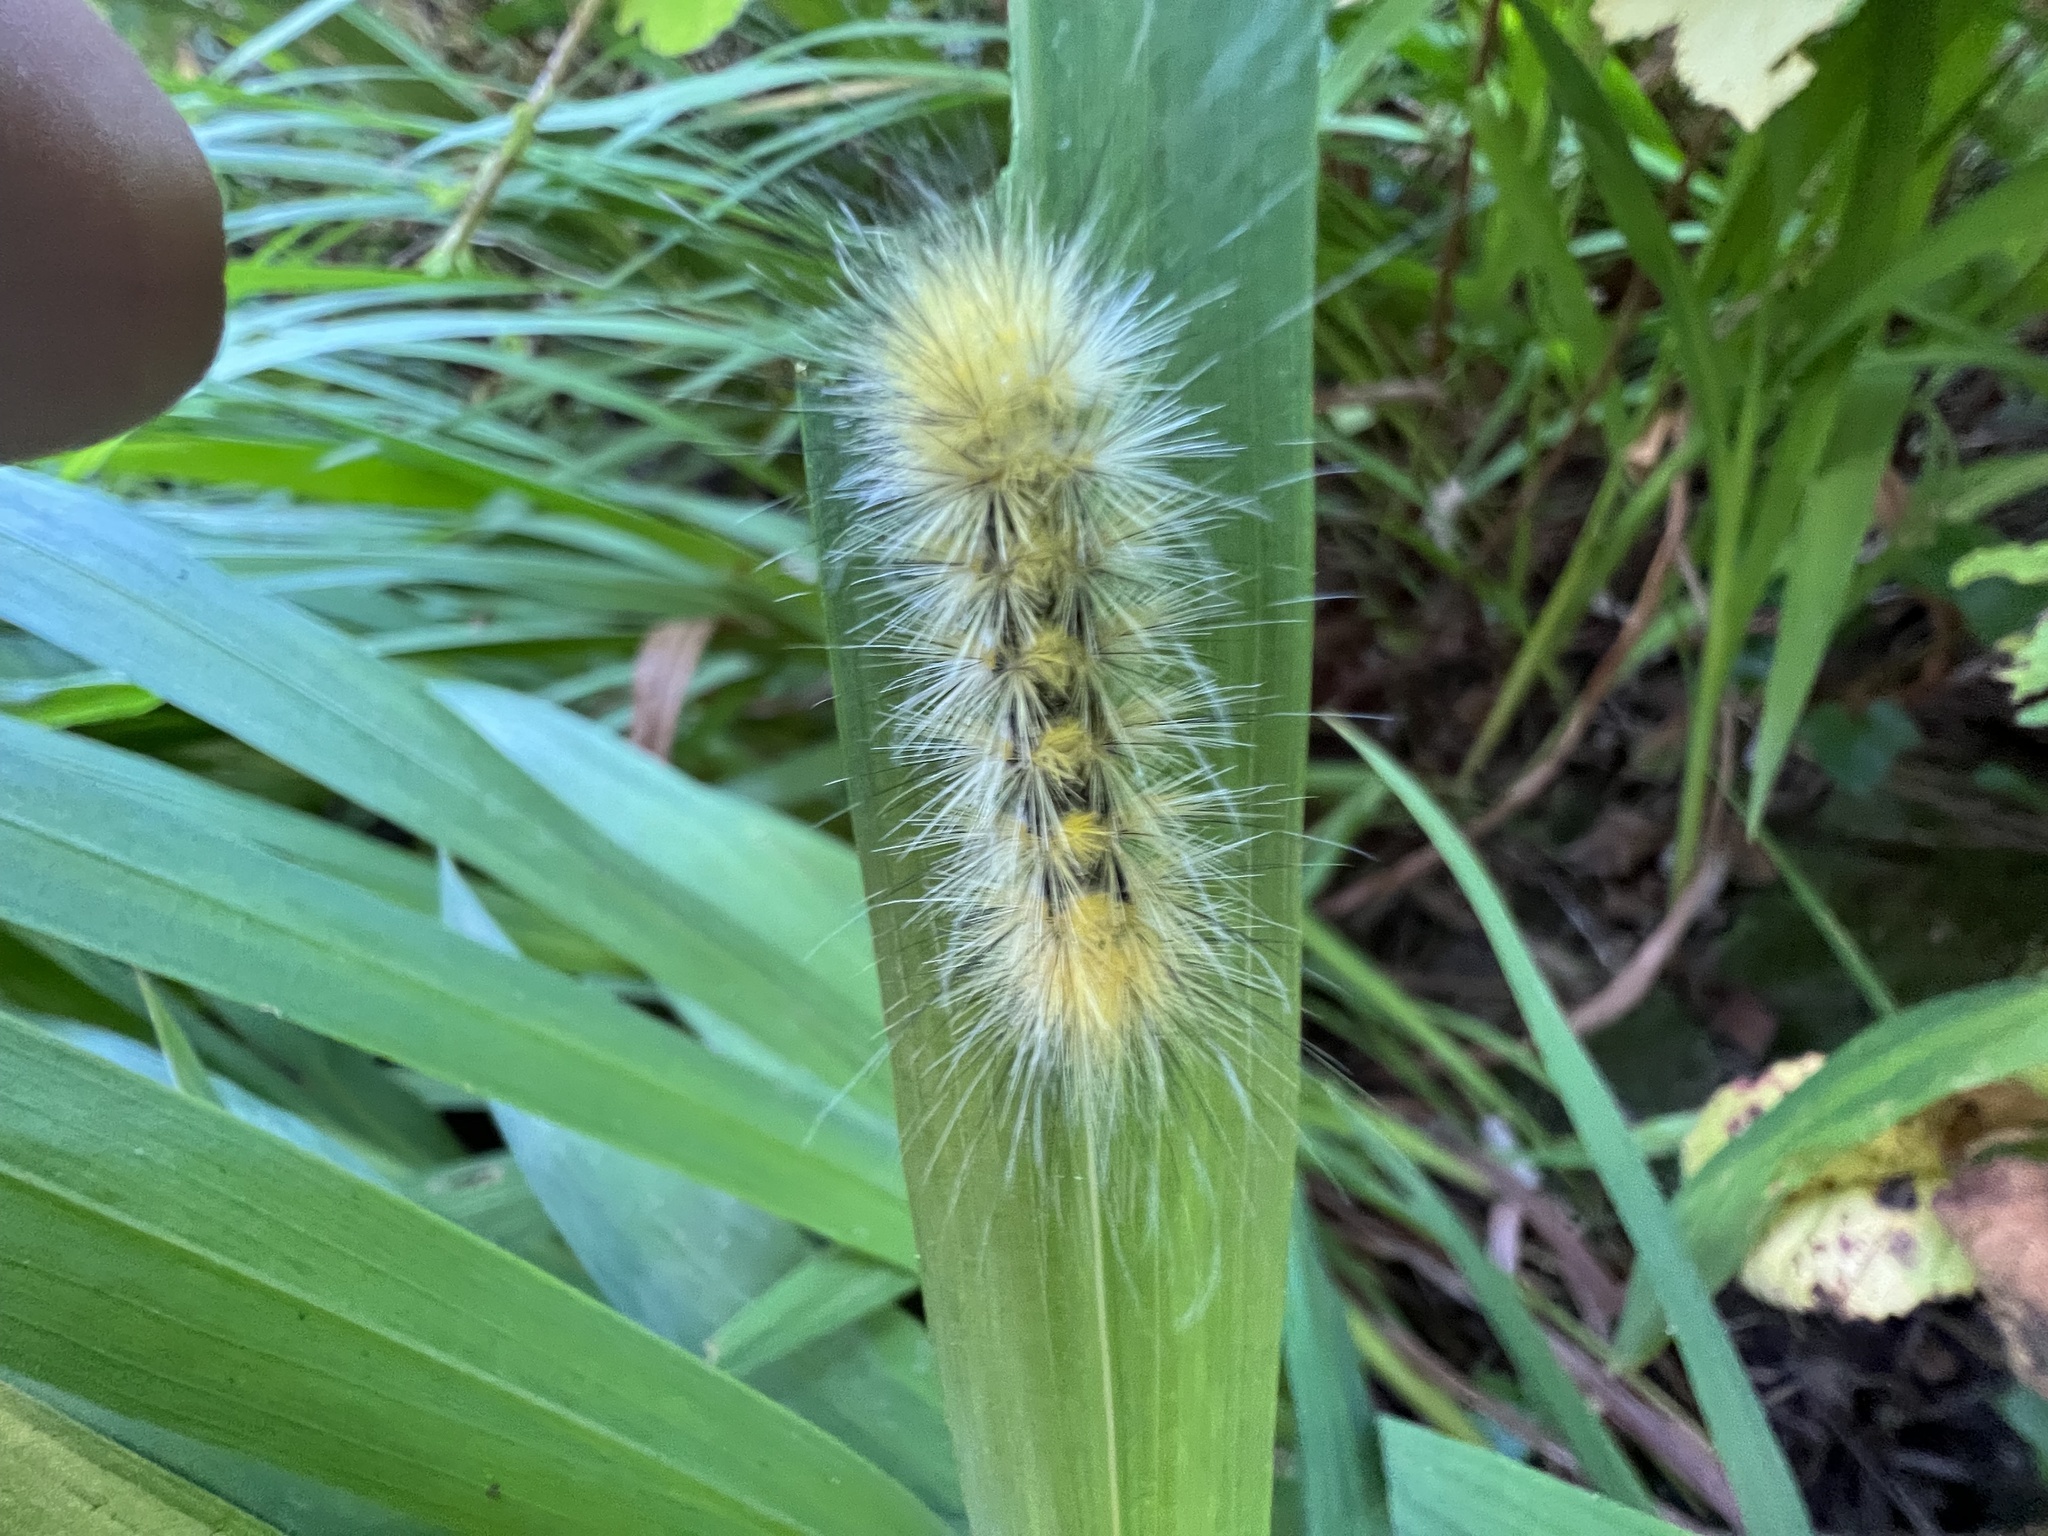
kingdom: Animalia
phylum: Arthropoda
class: Insecta
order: Lepidoptera
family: Erebidae
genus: Spilosoma
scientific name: Spilosoma virginica
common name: Virginia tiger moth
